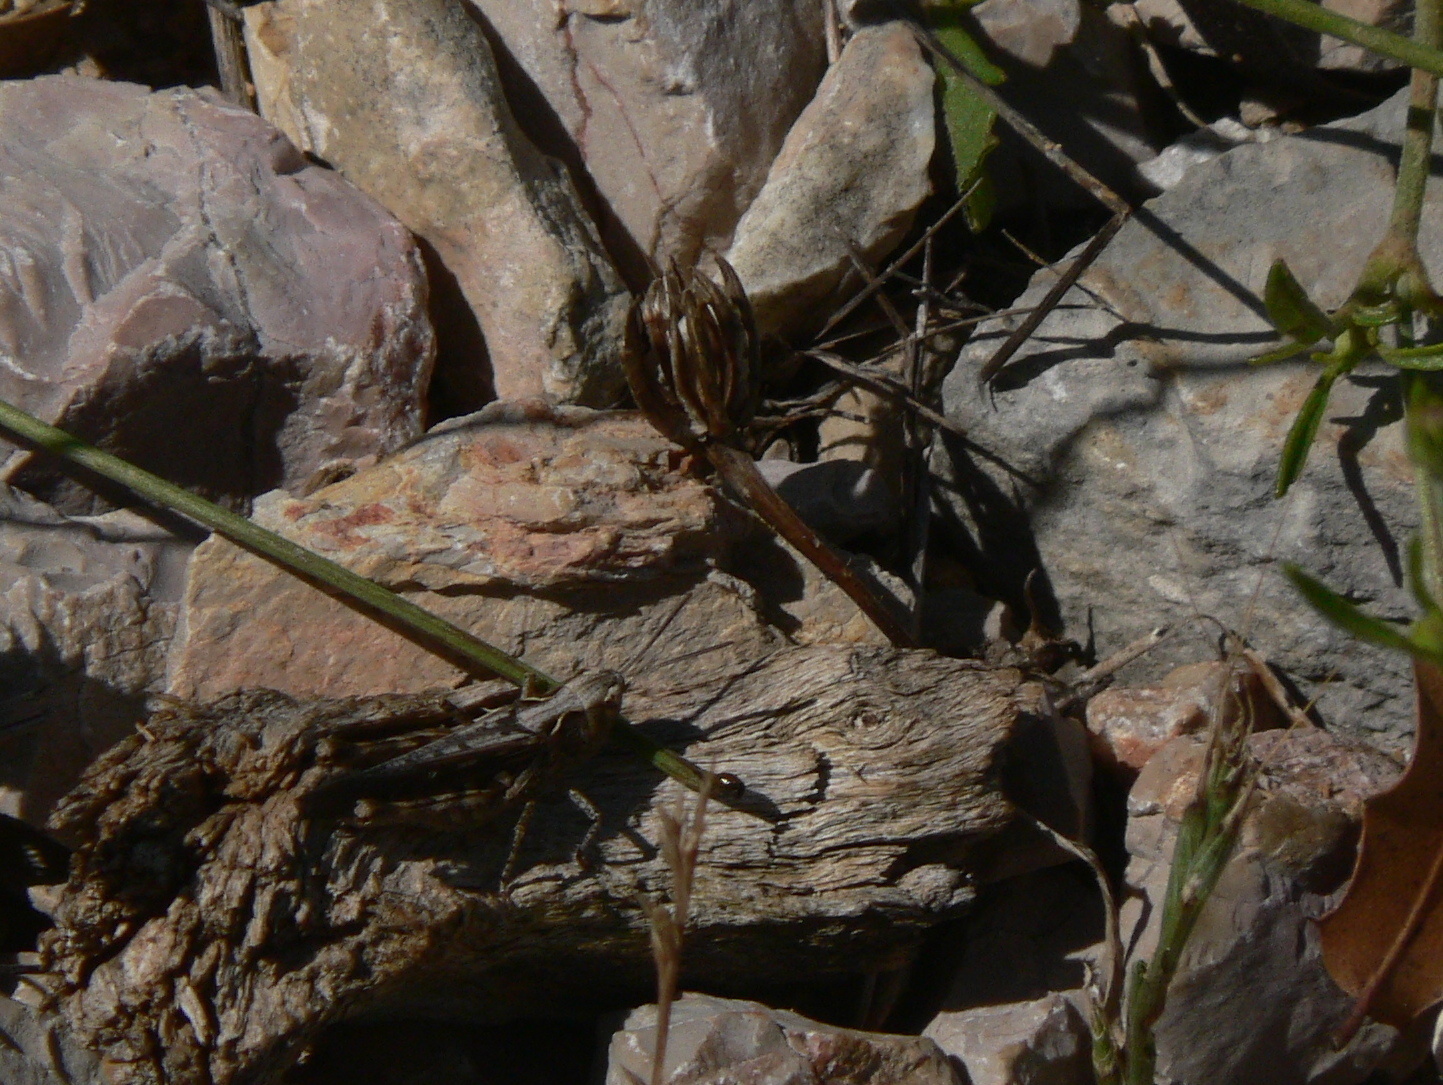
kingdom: Animalia
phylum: Arthropoda
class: Insecta
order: Orthoptera
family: Acrididae
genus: Omocestus
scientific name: Omocestus raymondi
